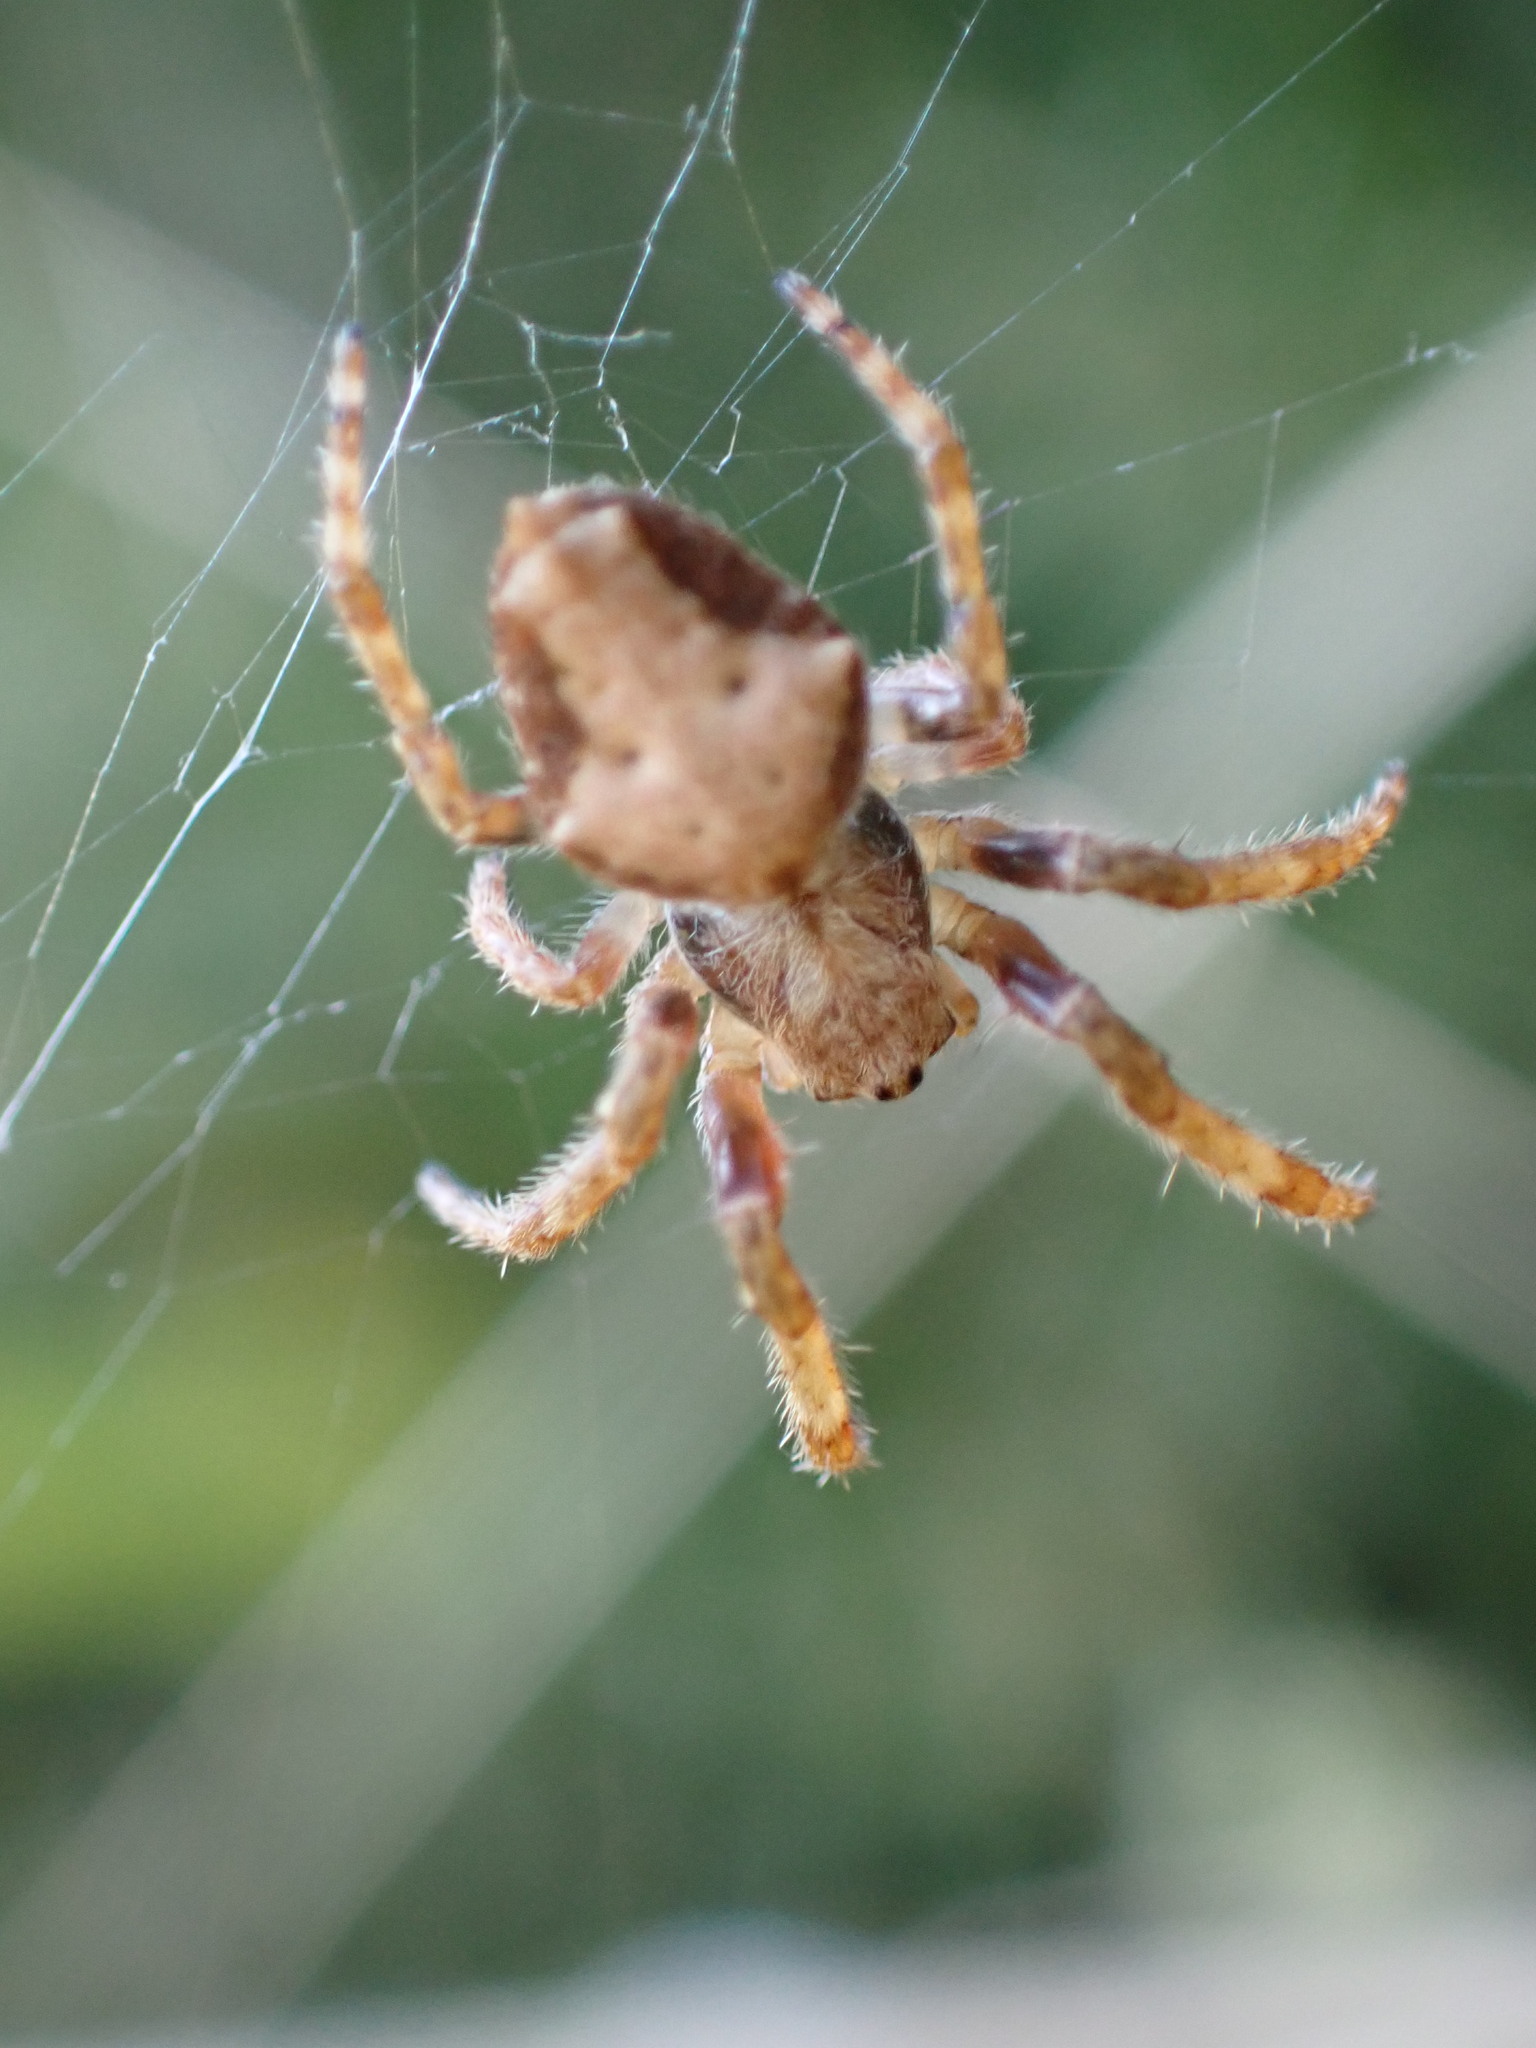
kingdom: Animalia
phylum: Arthropoda
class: Arachnida
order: Araneae
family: Araneidae
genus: Eriophora
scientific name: Eriophora pustulosa
